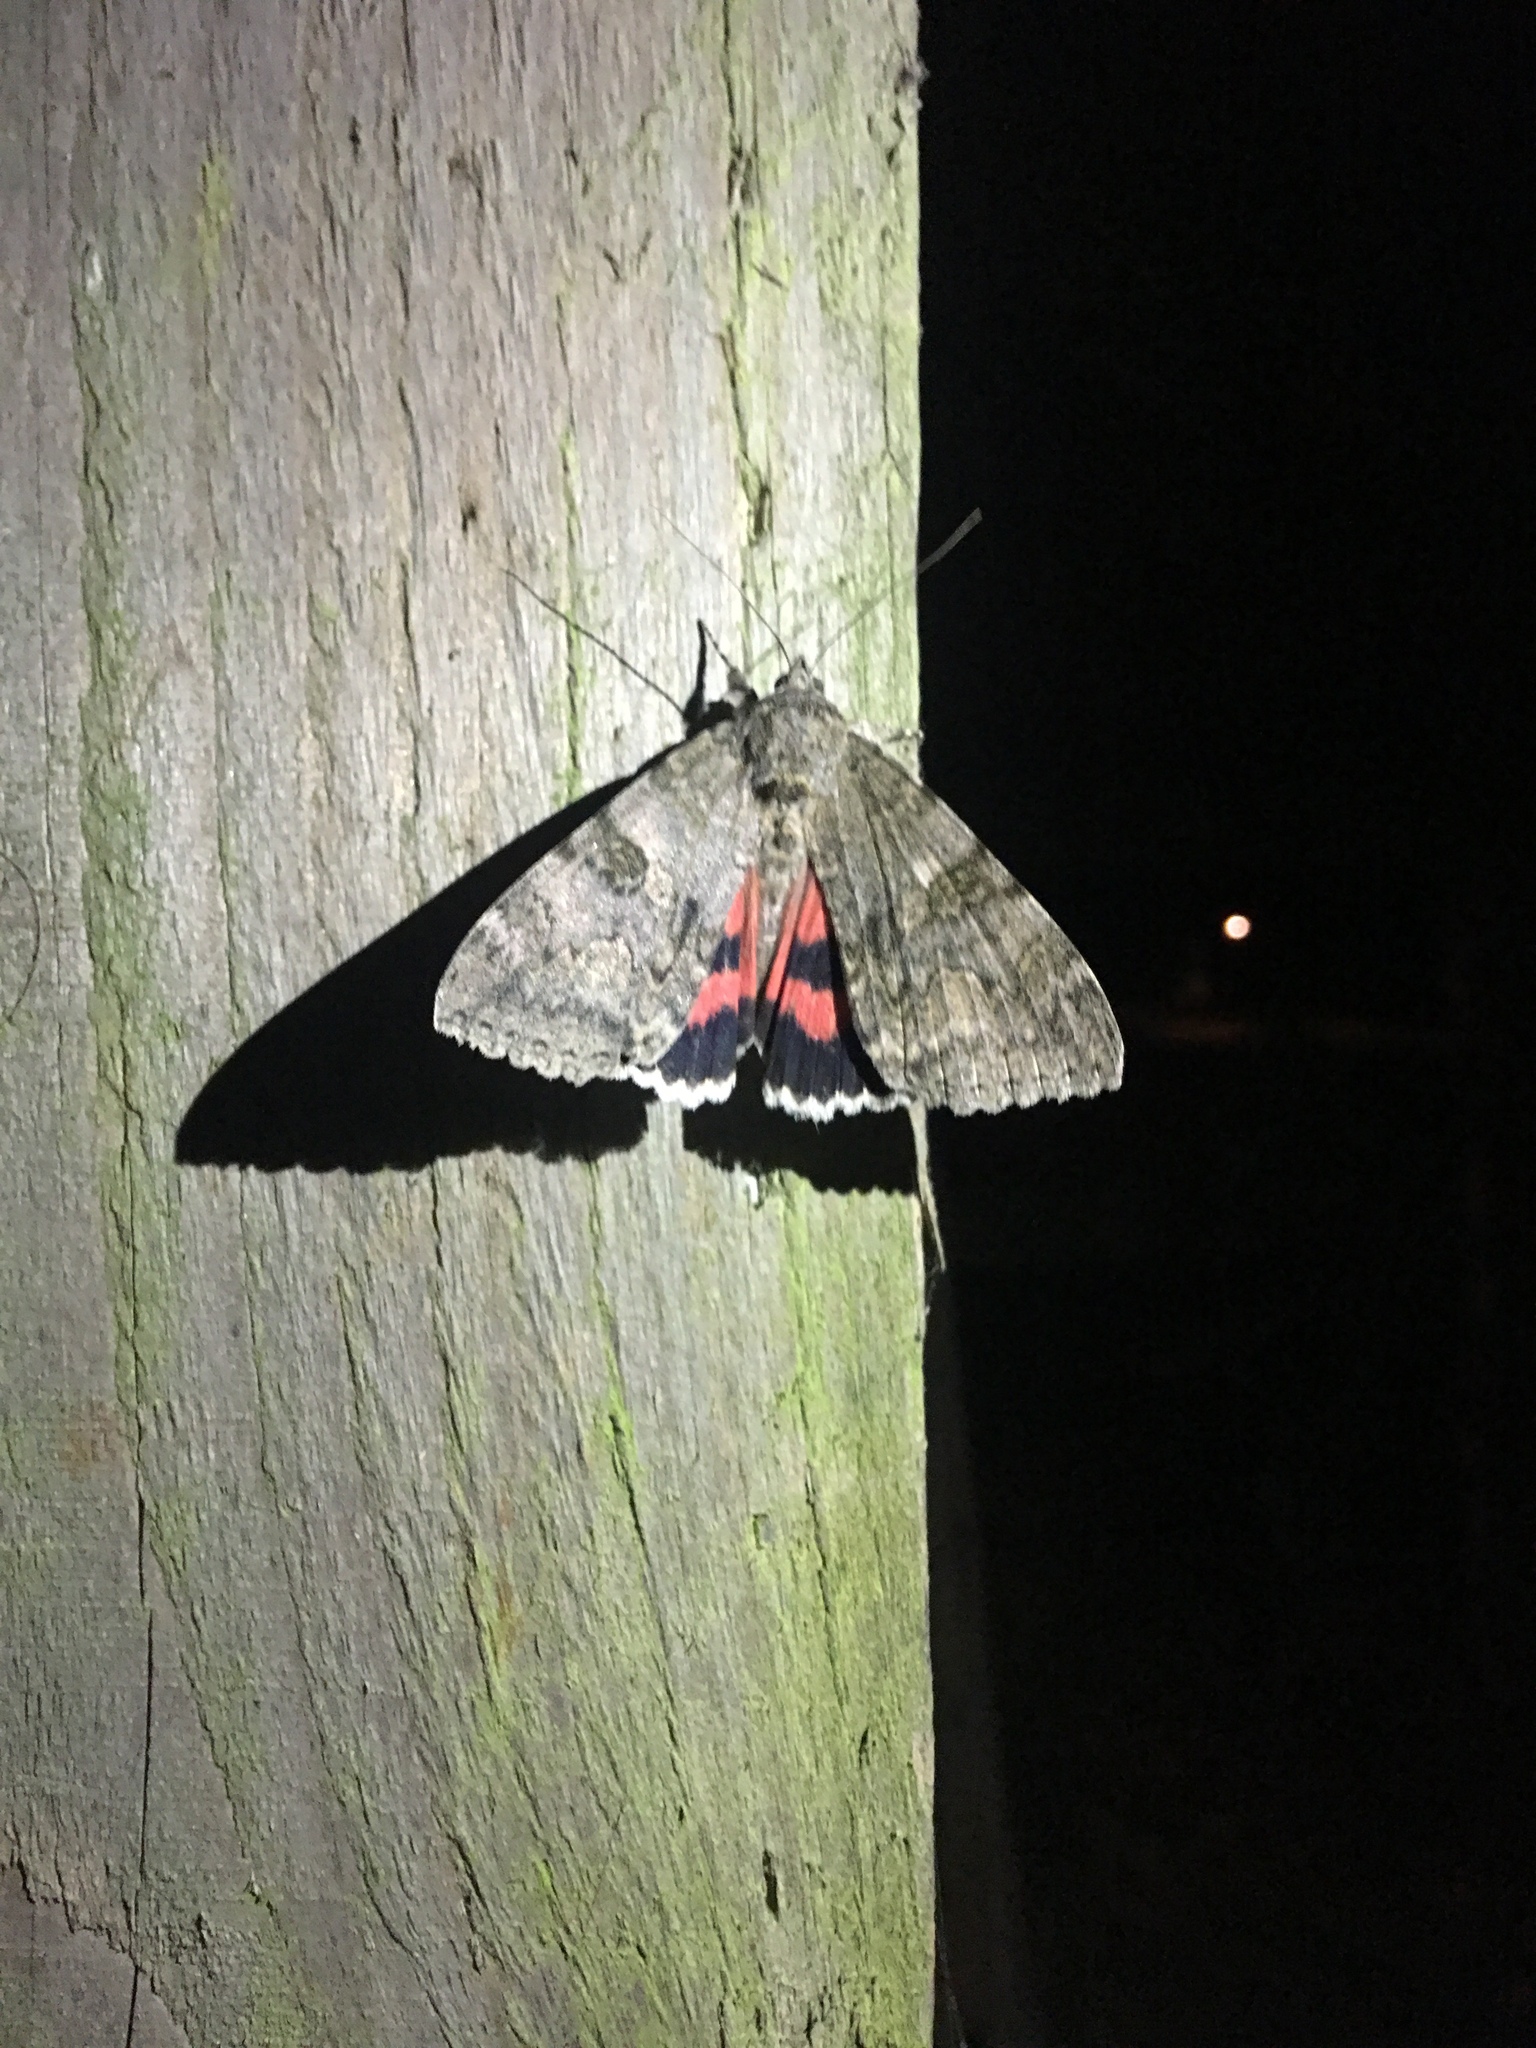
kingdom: Animalia
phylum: Arthropoda
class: Insecta
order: Lepidoptera
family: Erebidae
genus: Catocala
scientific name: Catocala nupta
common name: Red underwing
